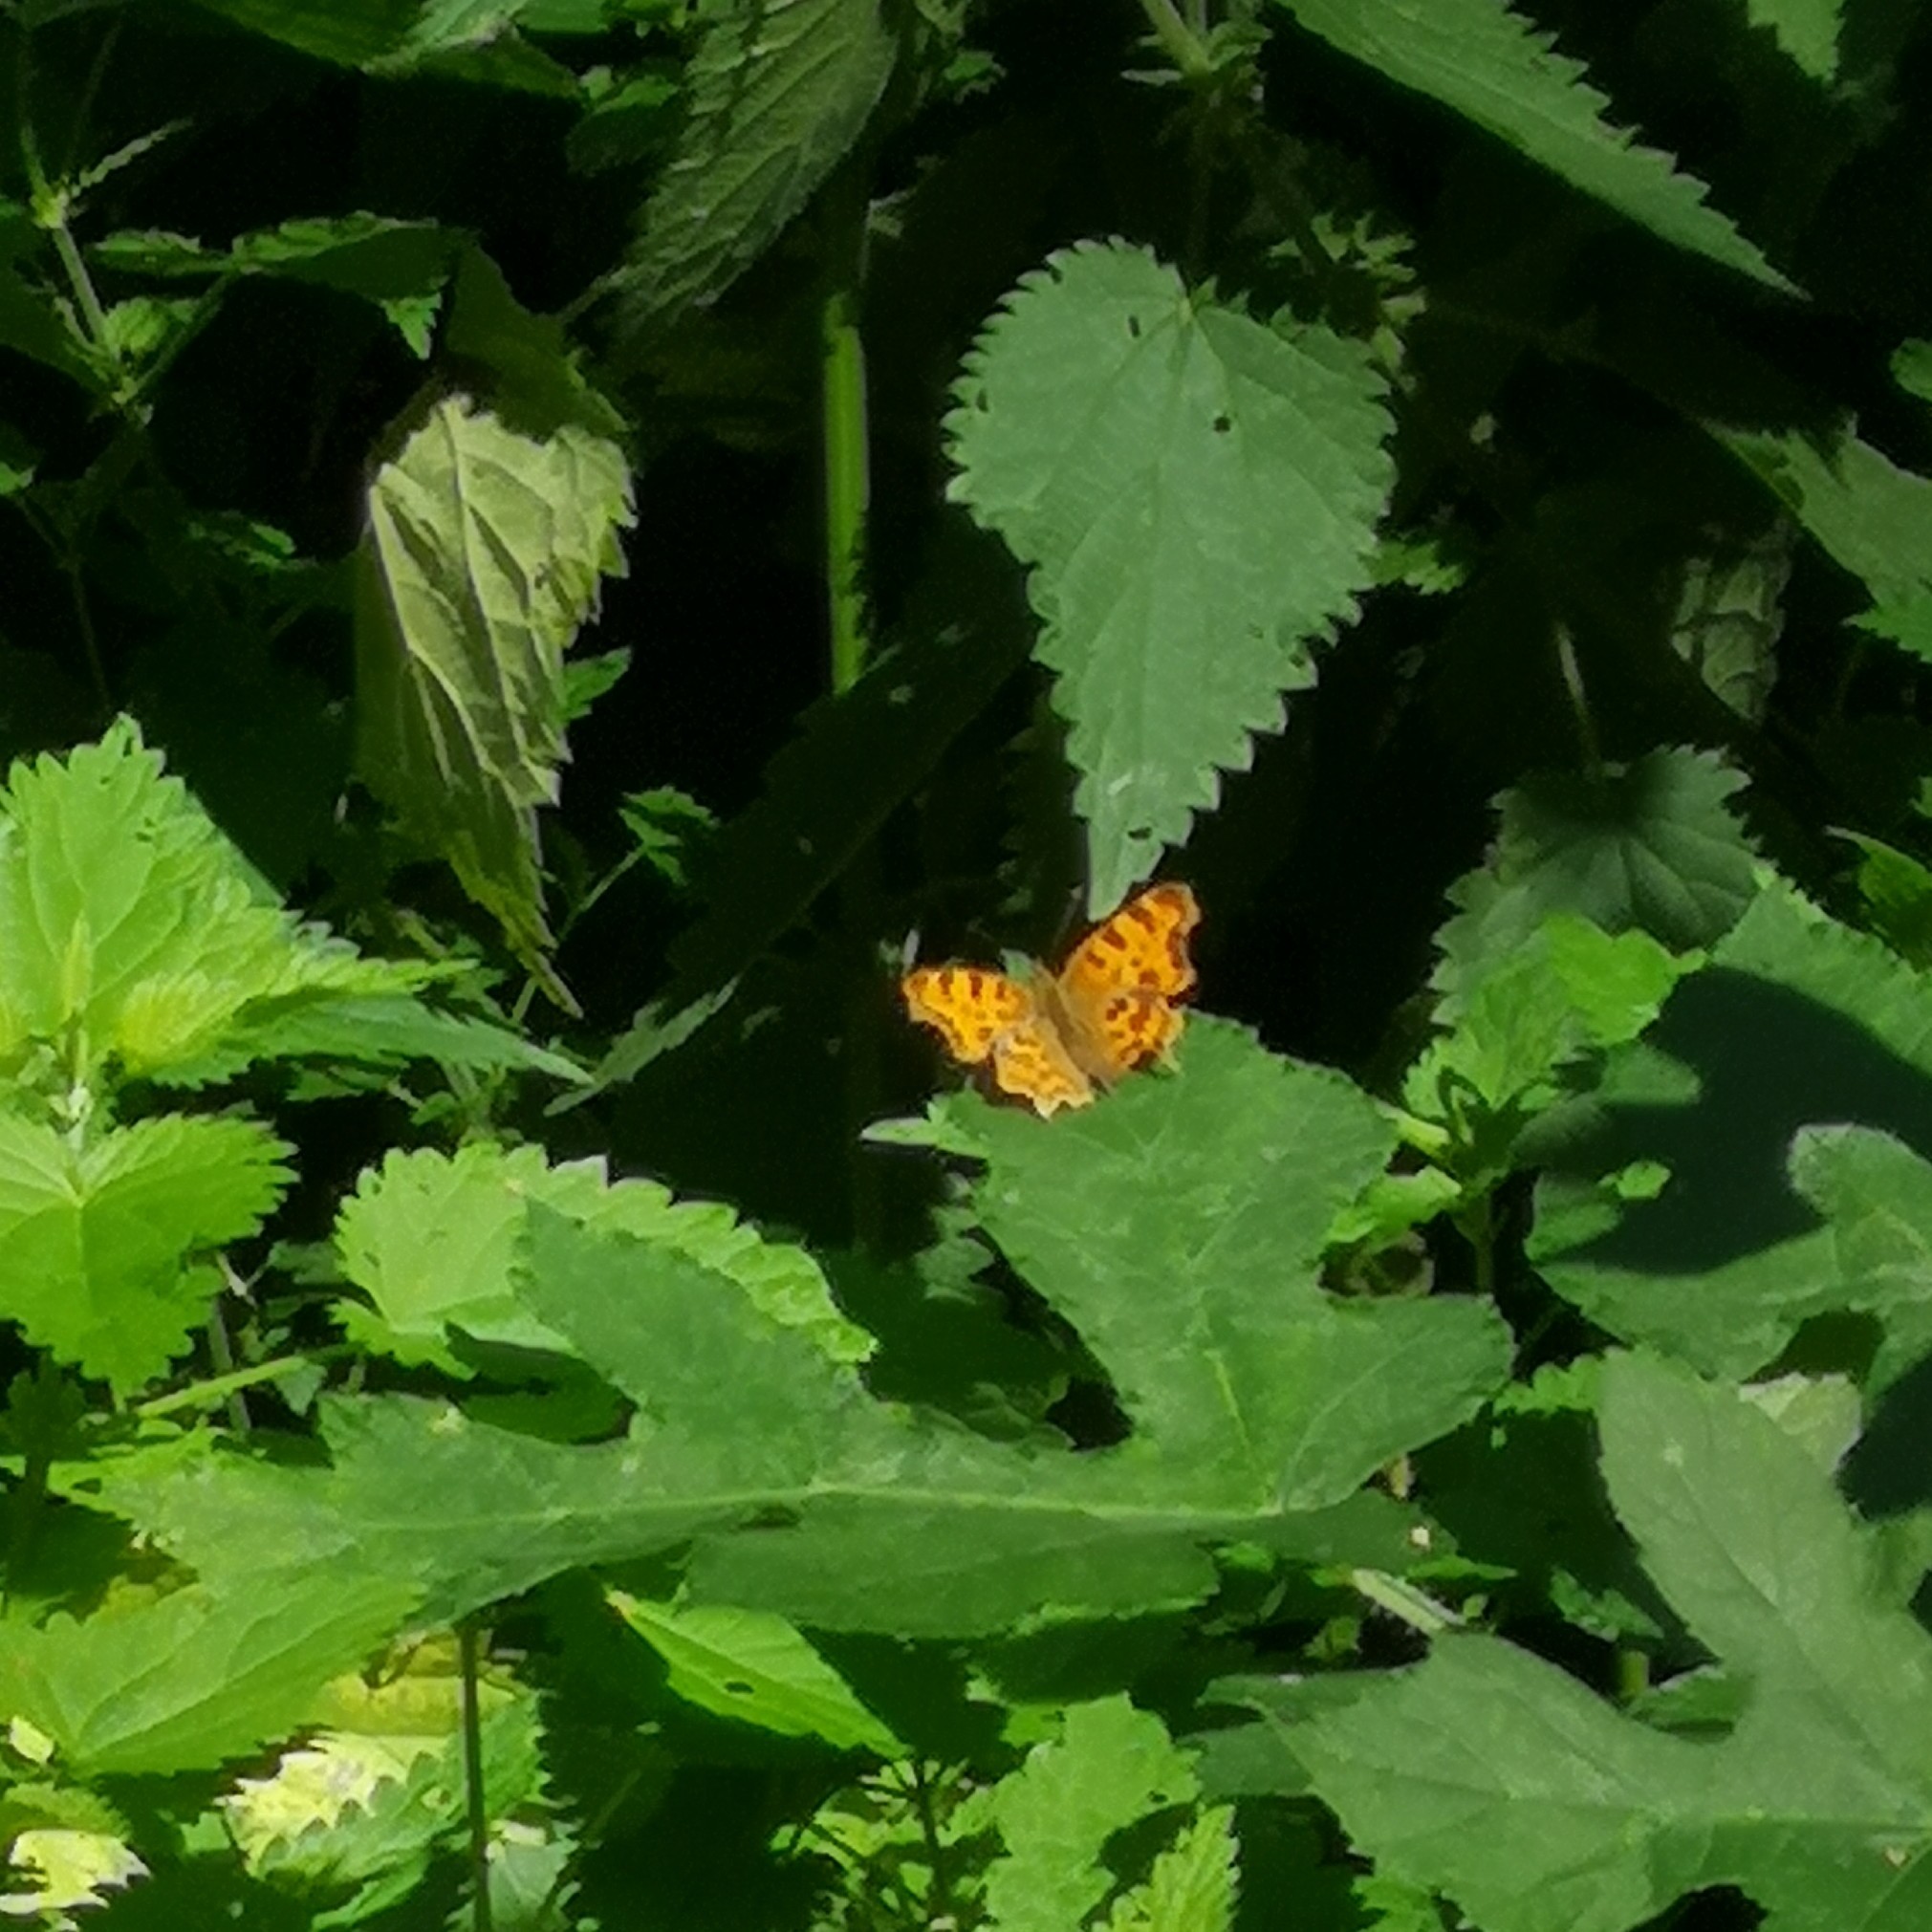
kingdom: Animalia
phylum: Arthropoda
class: Insecta
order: Lepidoptera
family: Nymphalidae
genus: Polygonia
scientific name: Polygonia c-album
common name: Comma
